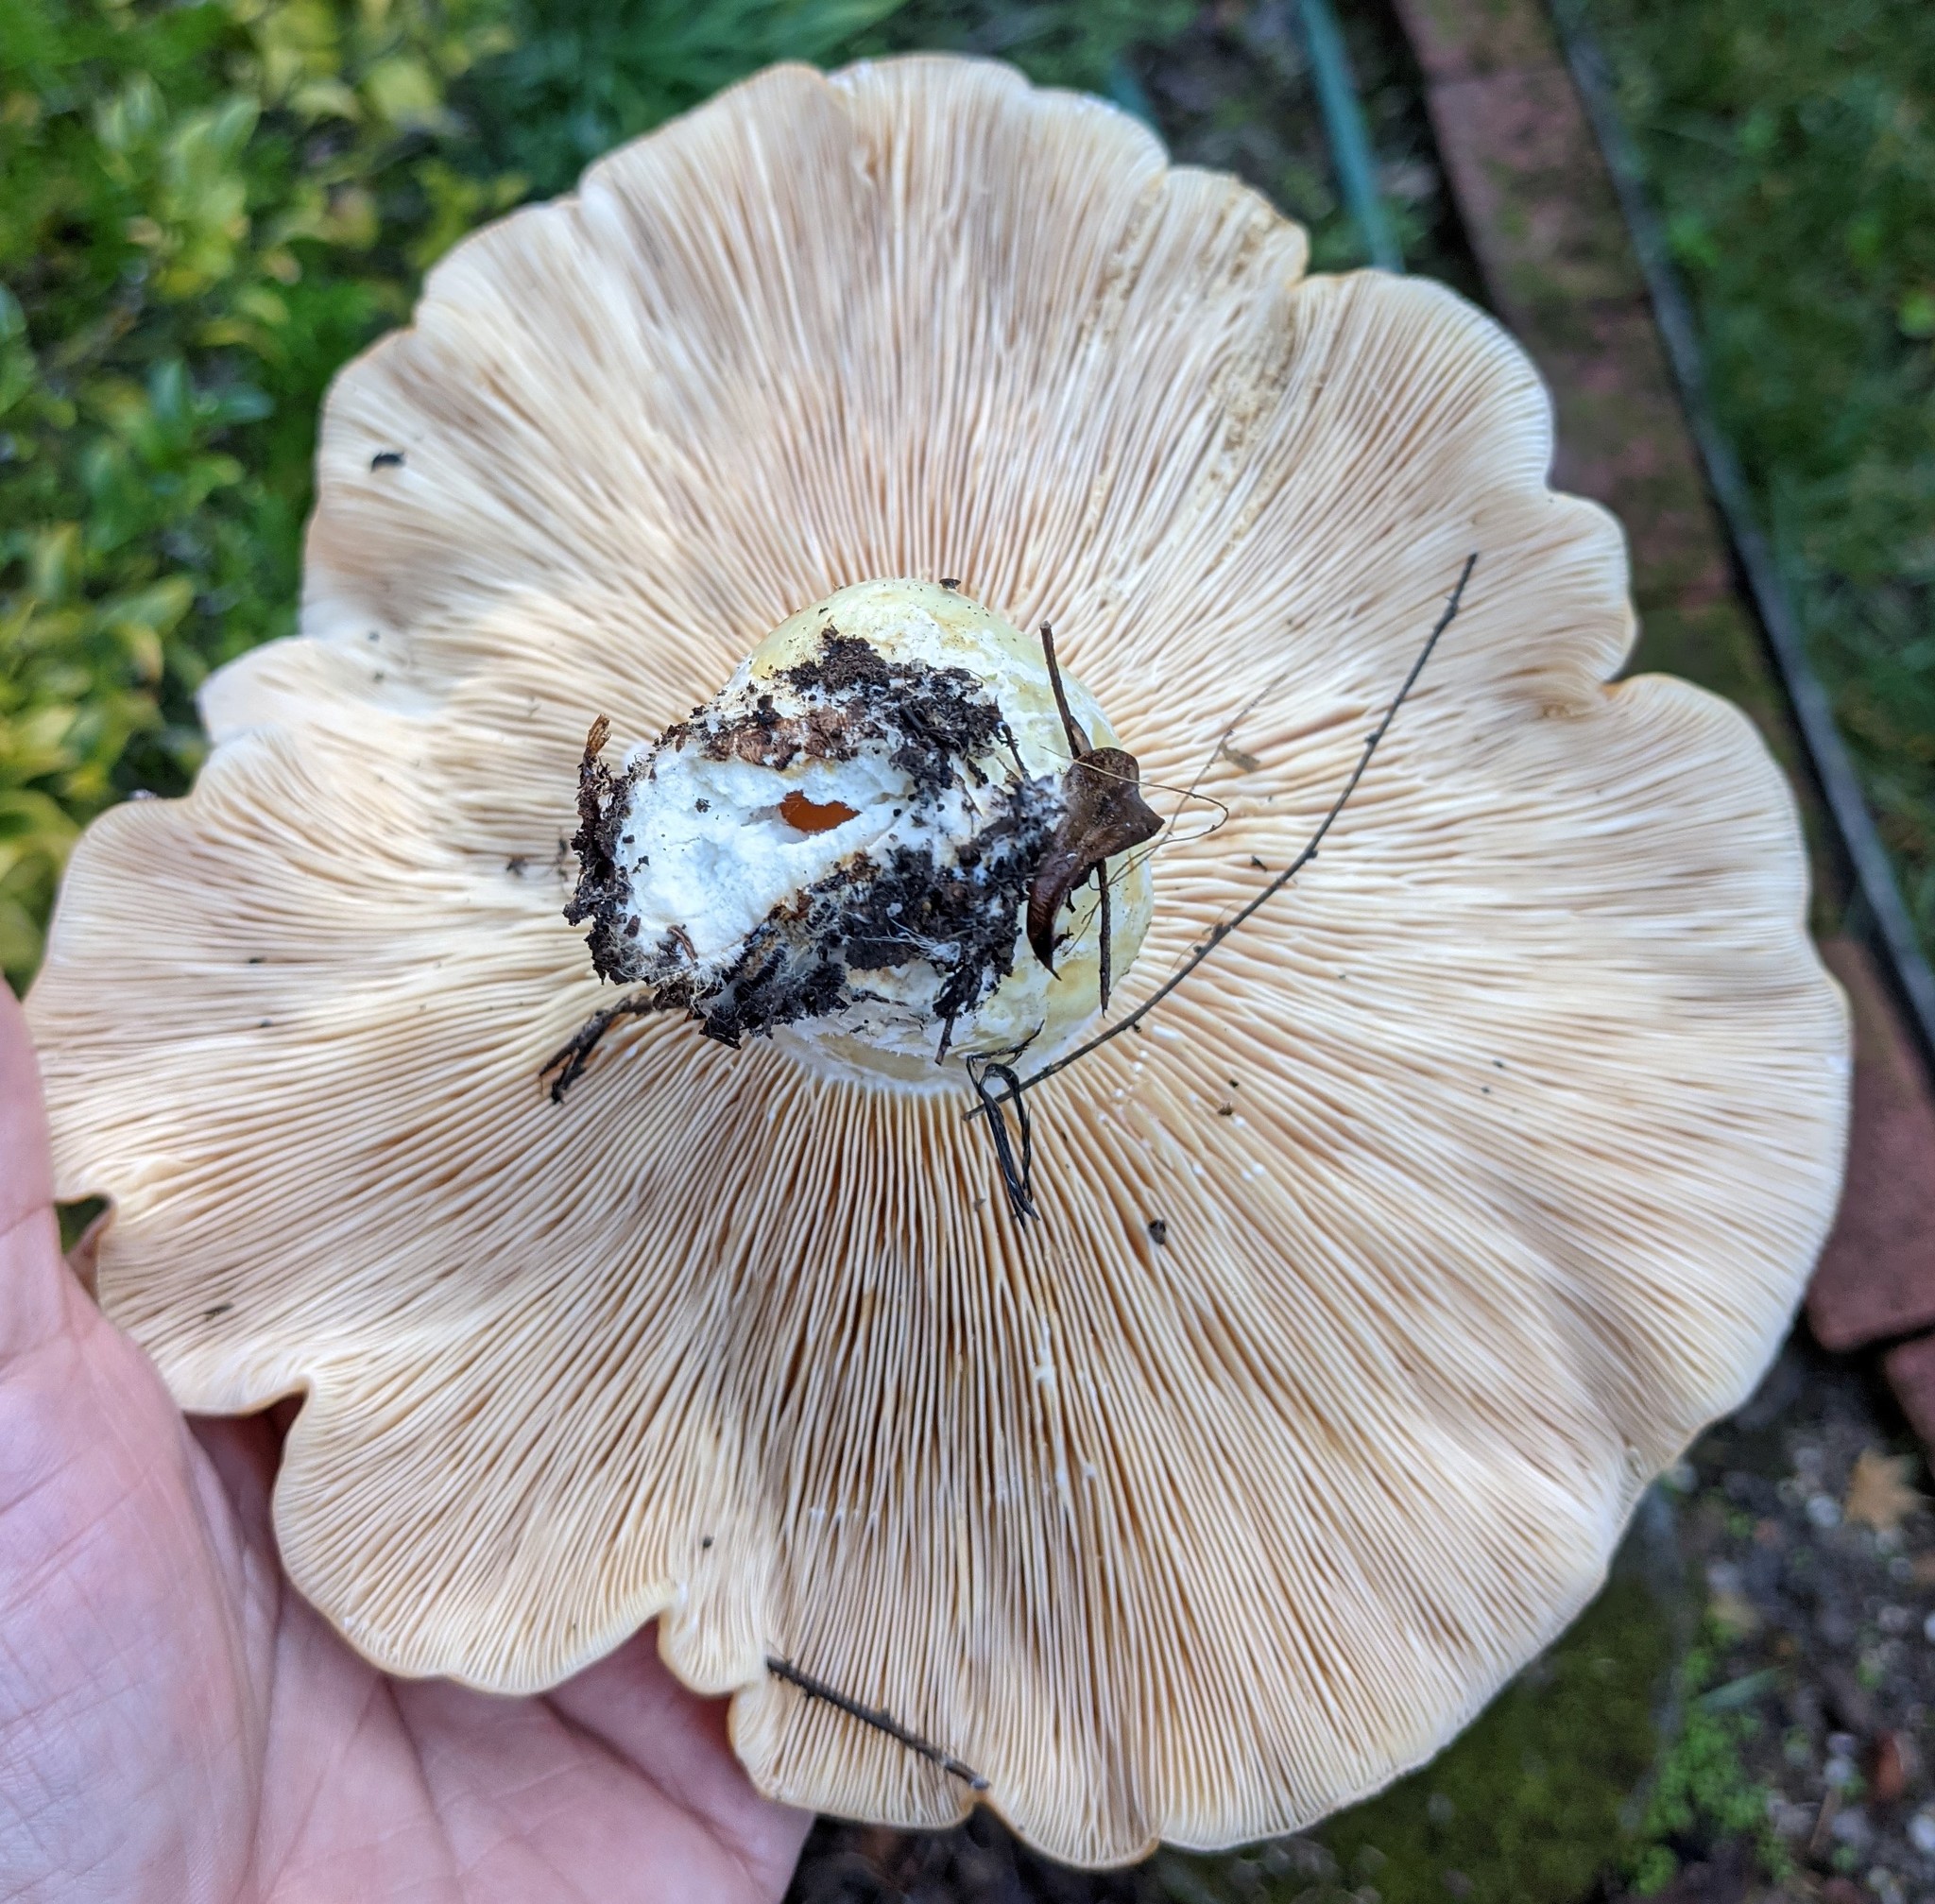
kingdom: Fungi
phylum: Basidiomycota
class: Agaricomycetes
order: Russulales
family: Russulaceae
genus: Lactarius
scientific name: Lactarius alnicola
